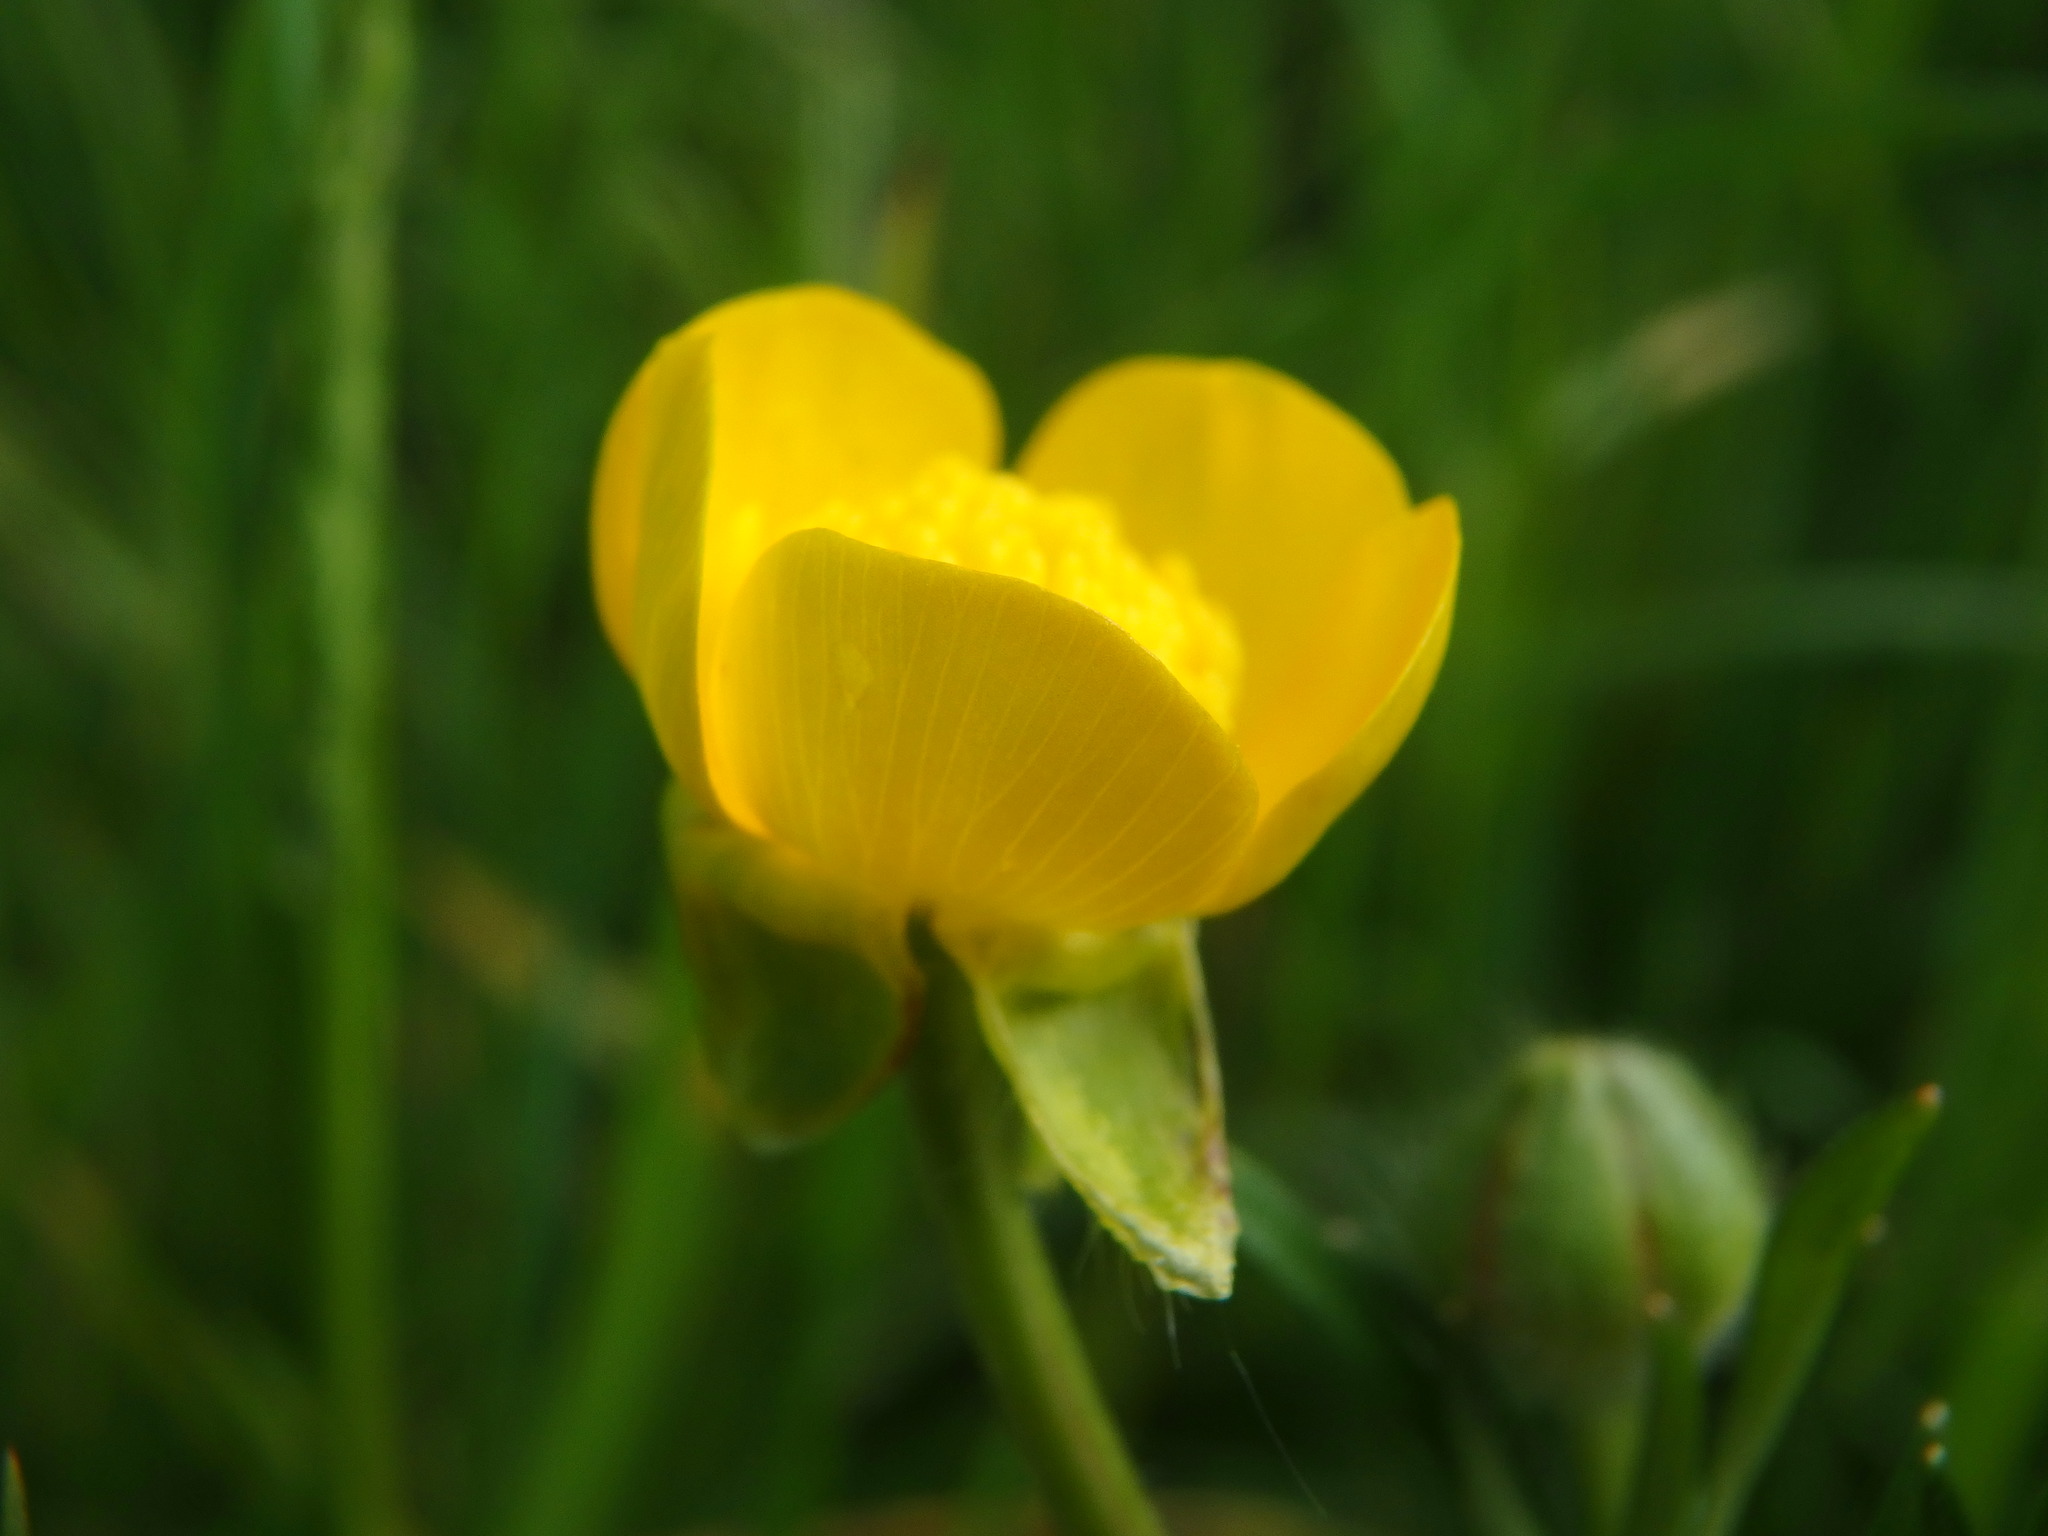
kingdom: Plantae
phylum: Tracheophyta
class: Magnoliopsida
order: Ranunculales
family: Ranunculaceae
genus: Ranunculus
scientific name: Ranunculus bulbosus
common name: Bulbous buttercup
